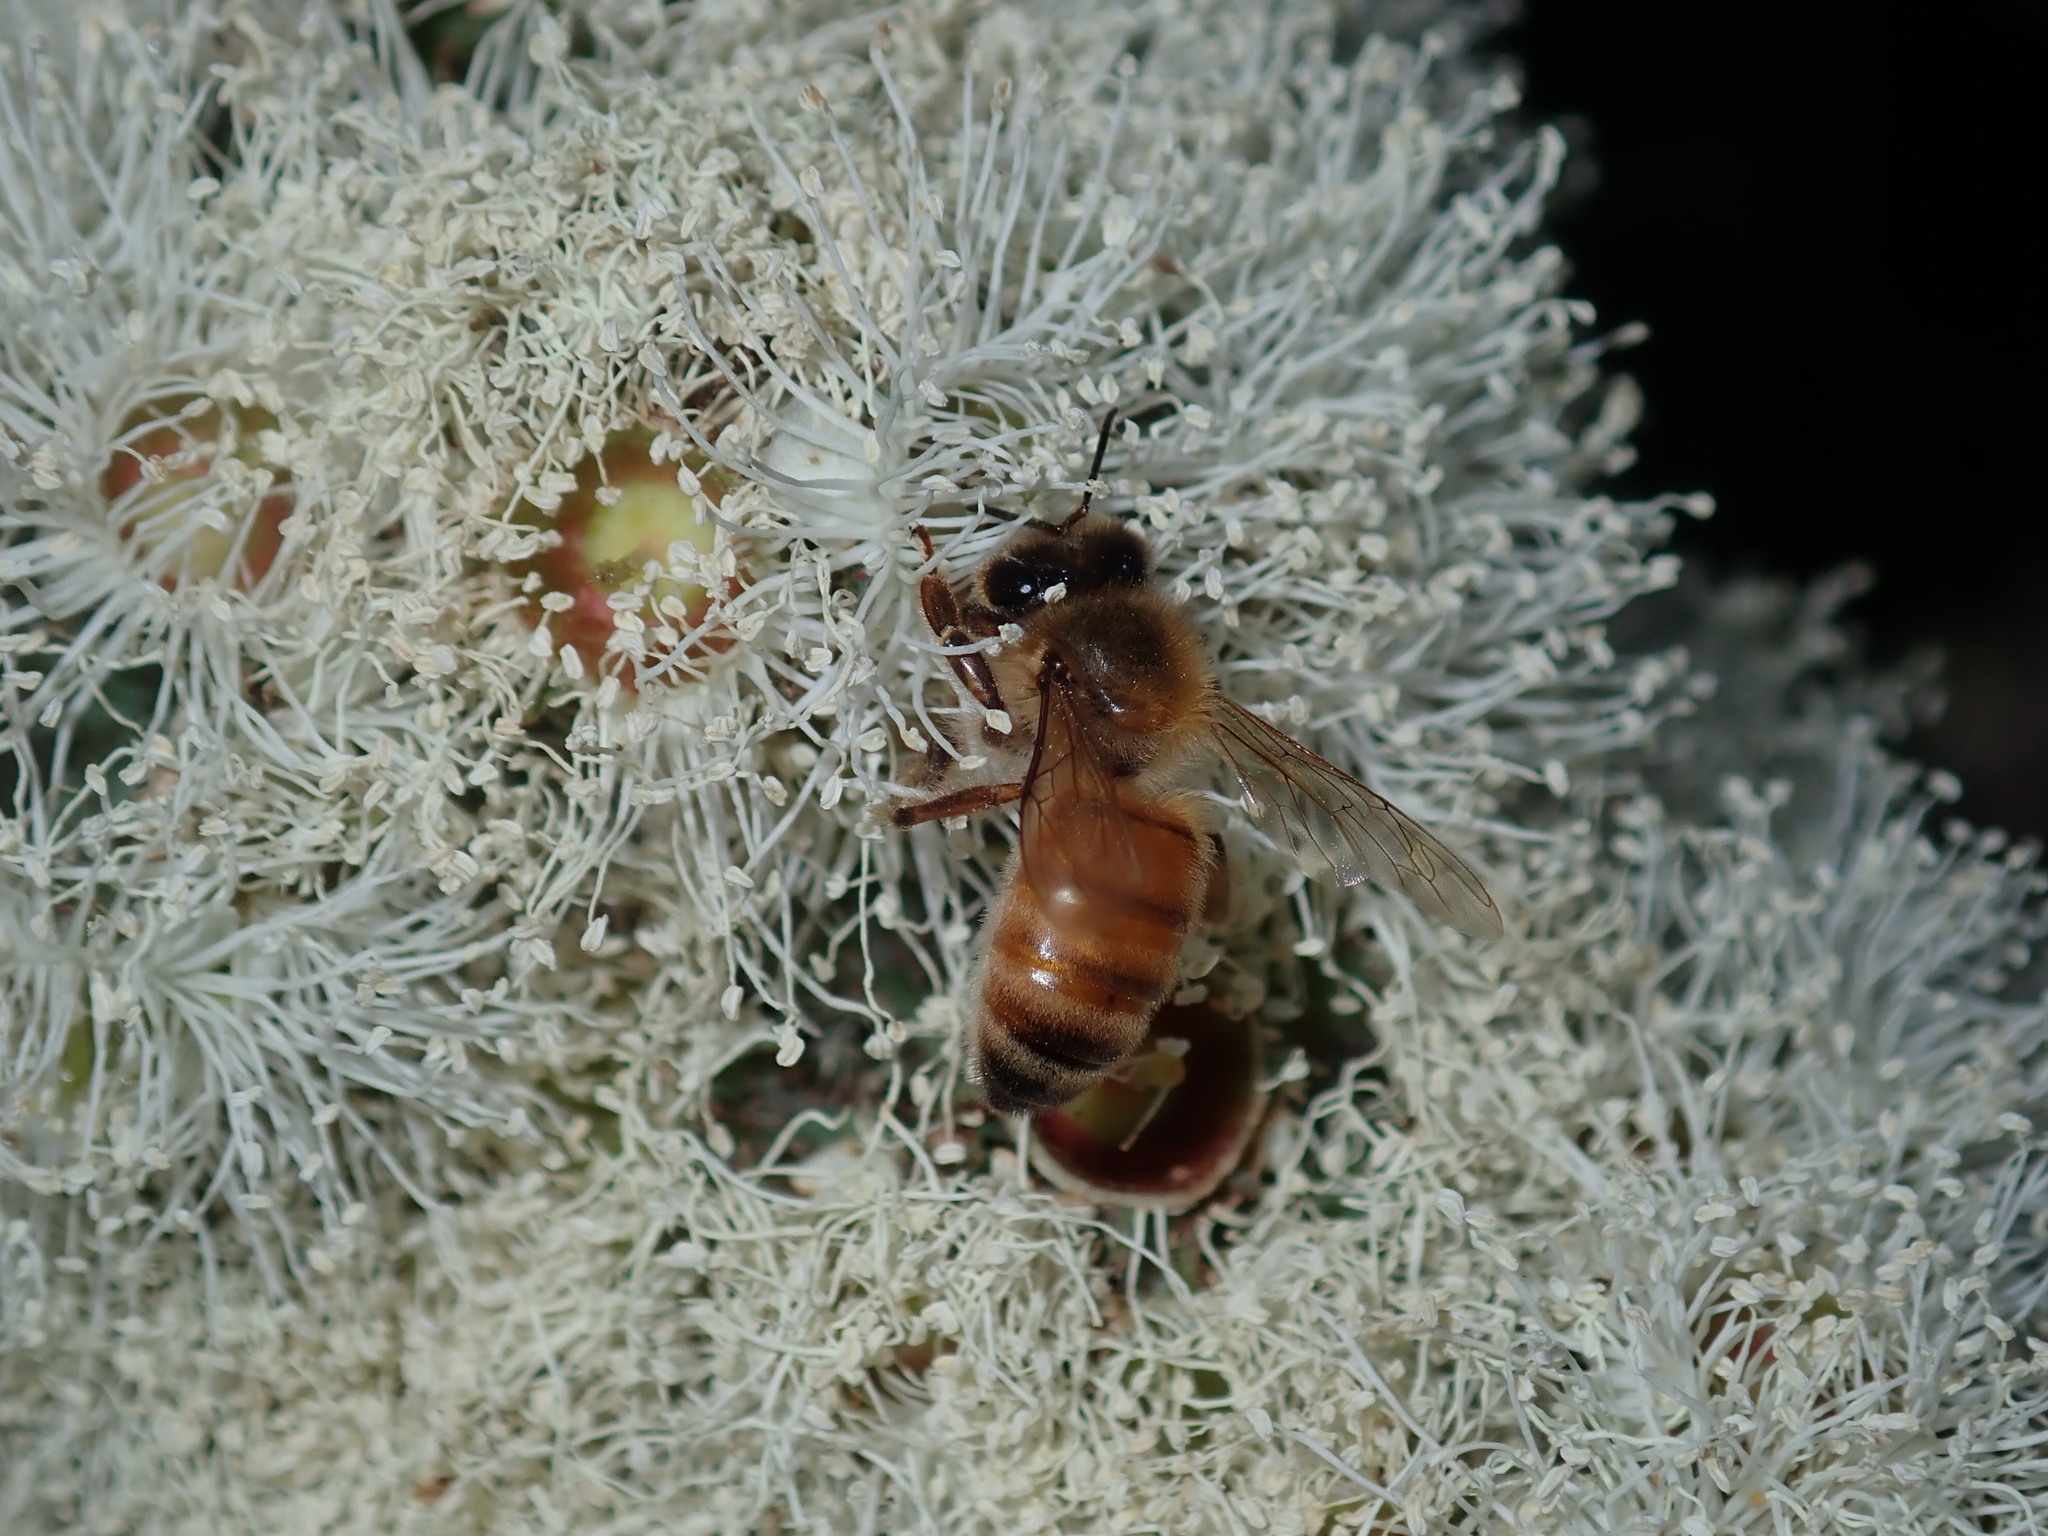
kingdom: Animalia
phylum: Arthropoda
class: Insecta
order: Hymenoptera
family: Apidae
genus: Apis
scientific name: Apis mellifera
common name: Honey bee
